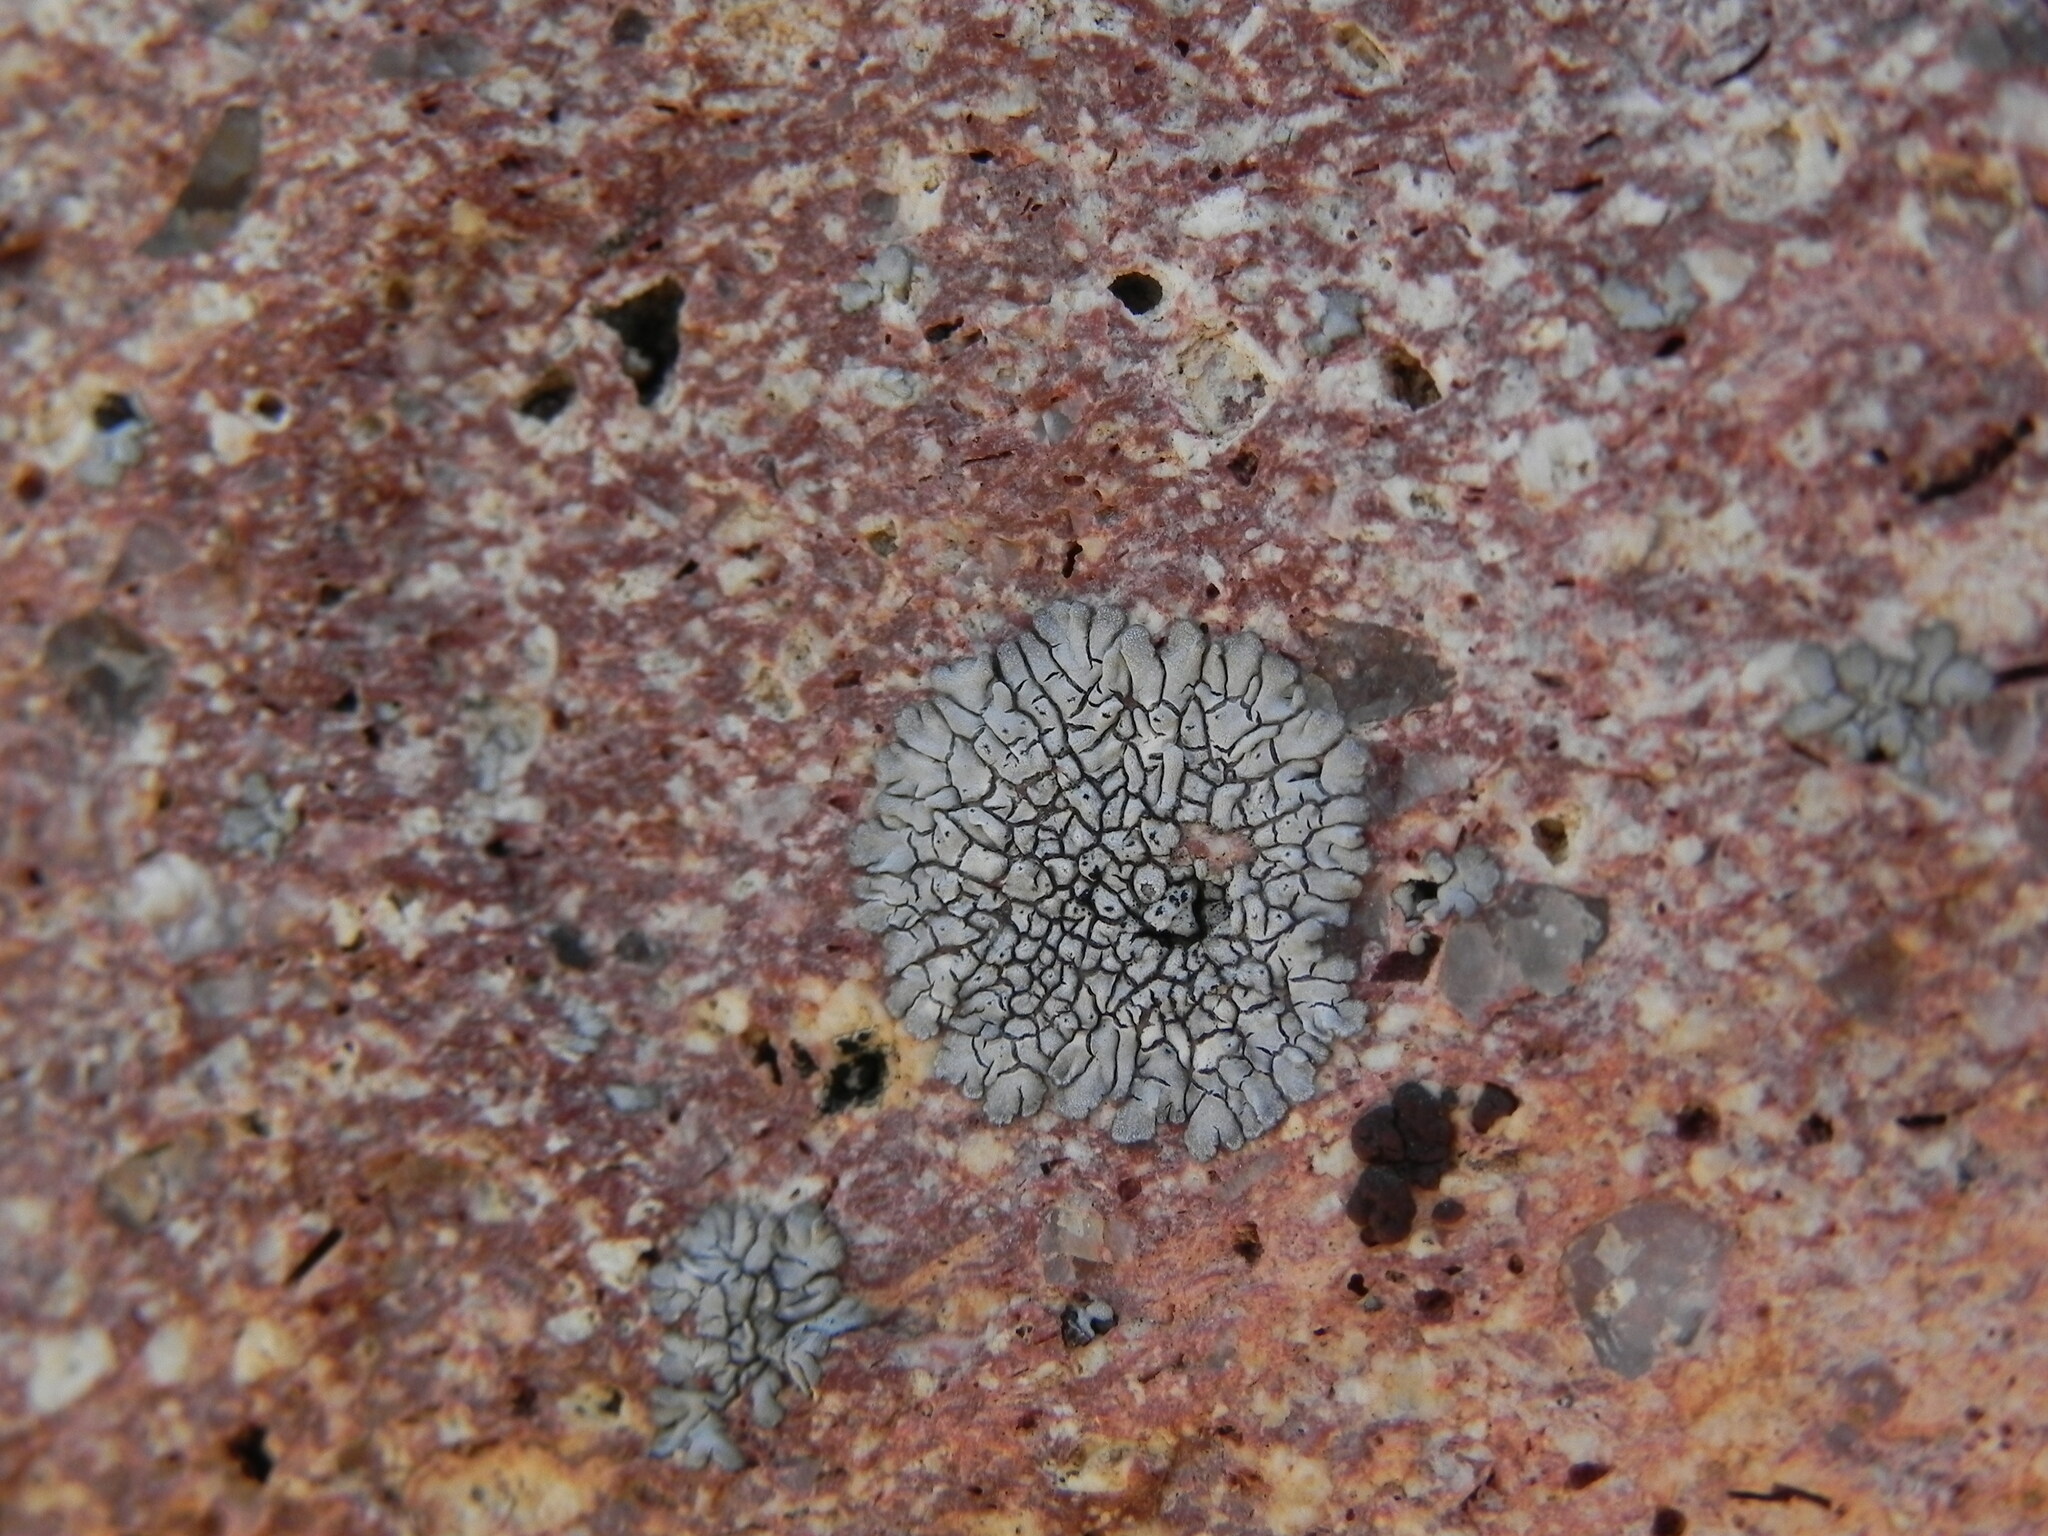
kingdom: Fungi
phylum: Ascomycota
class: Lecanoromycetes
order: Caliciales
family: Caliciaceae
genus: Dimelaena
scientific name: Dimelaena radiata
